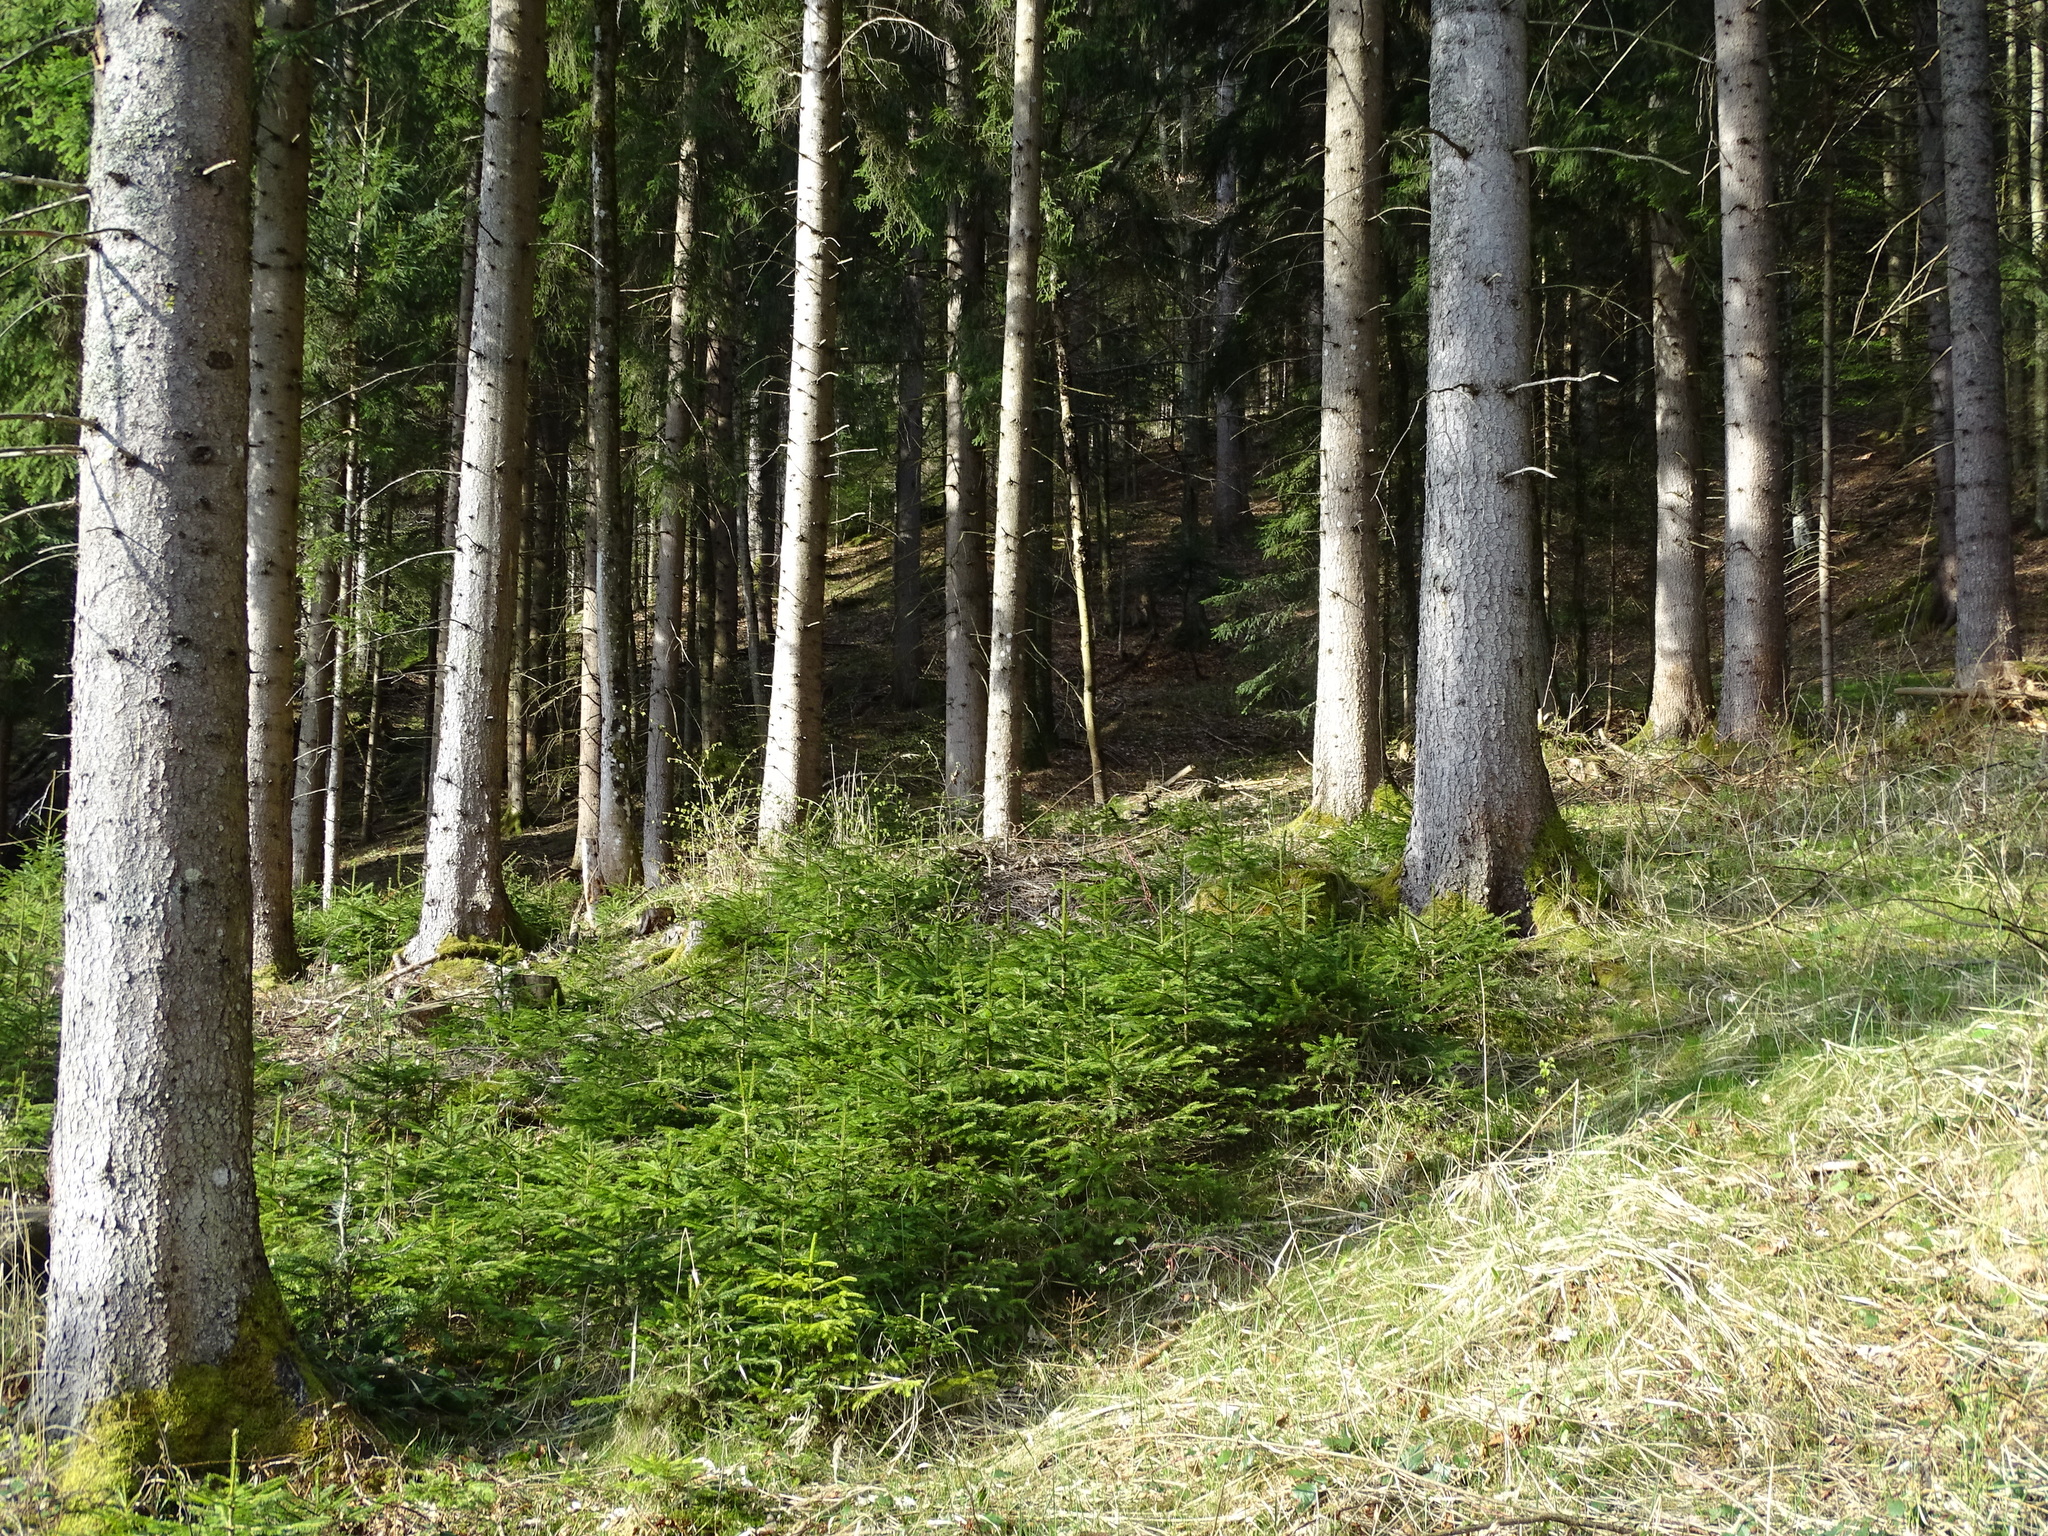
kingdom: Plantae
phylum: Tracheophyta
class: Pinopsida
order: Pinales
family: Pinaceae
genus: Picea
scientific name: Picea abies
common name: Norway spruce
